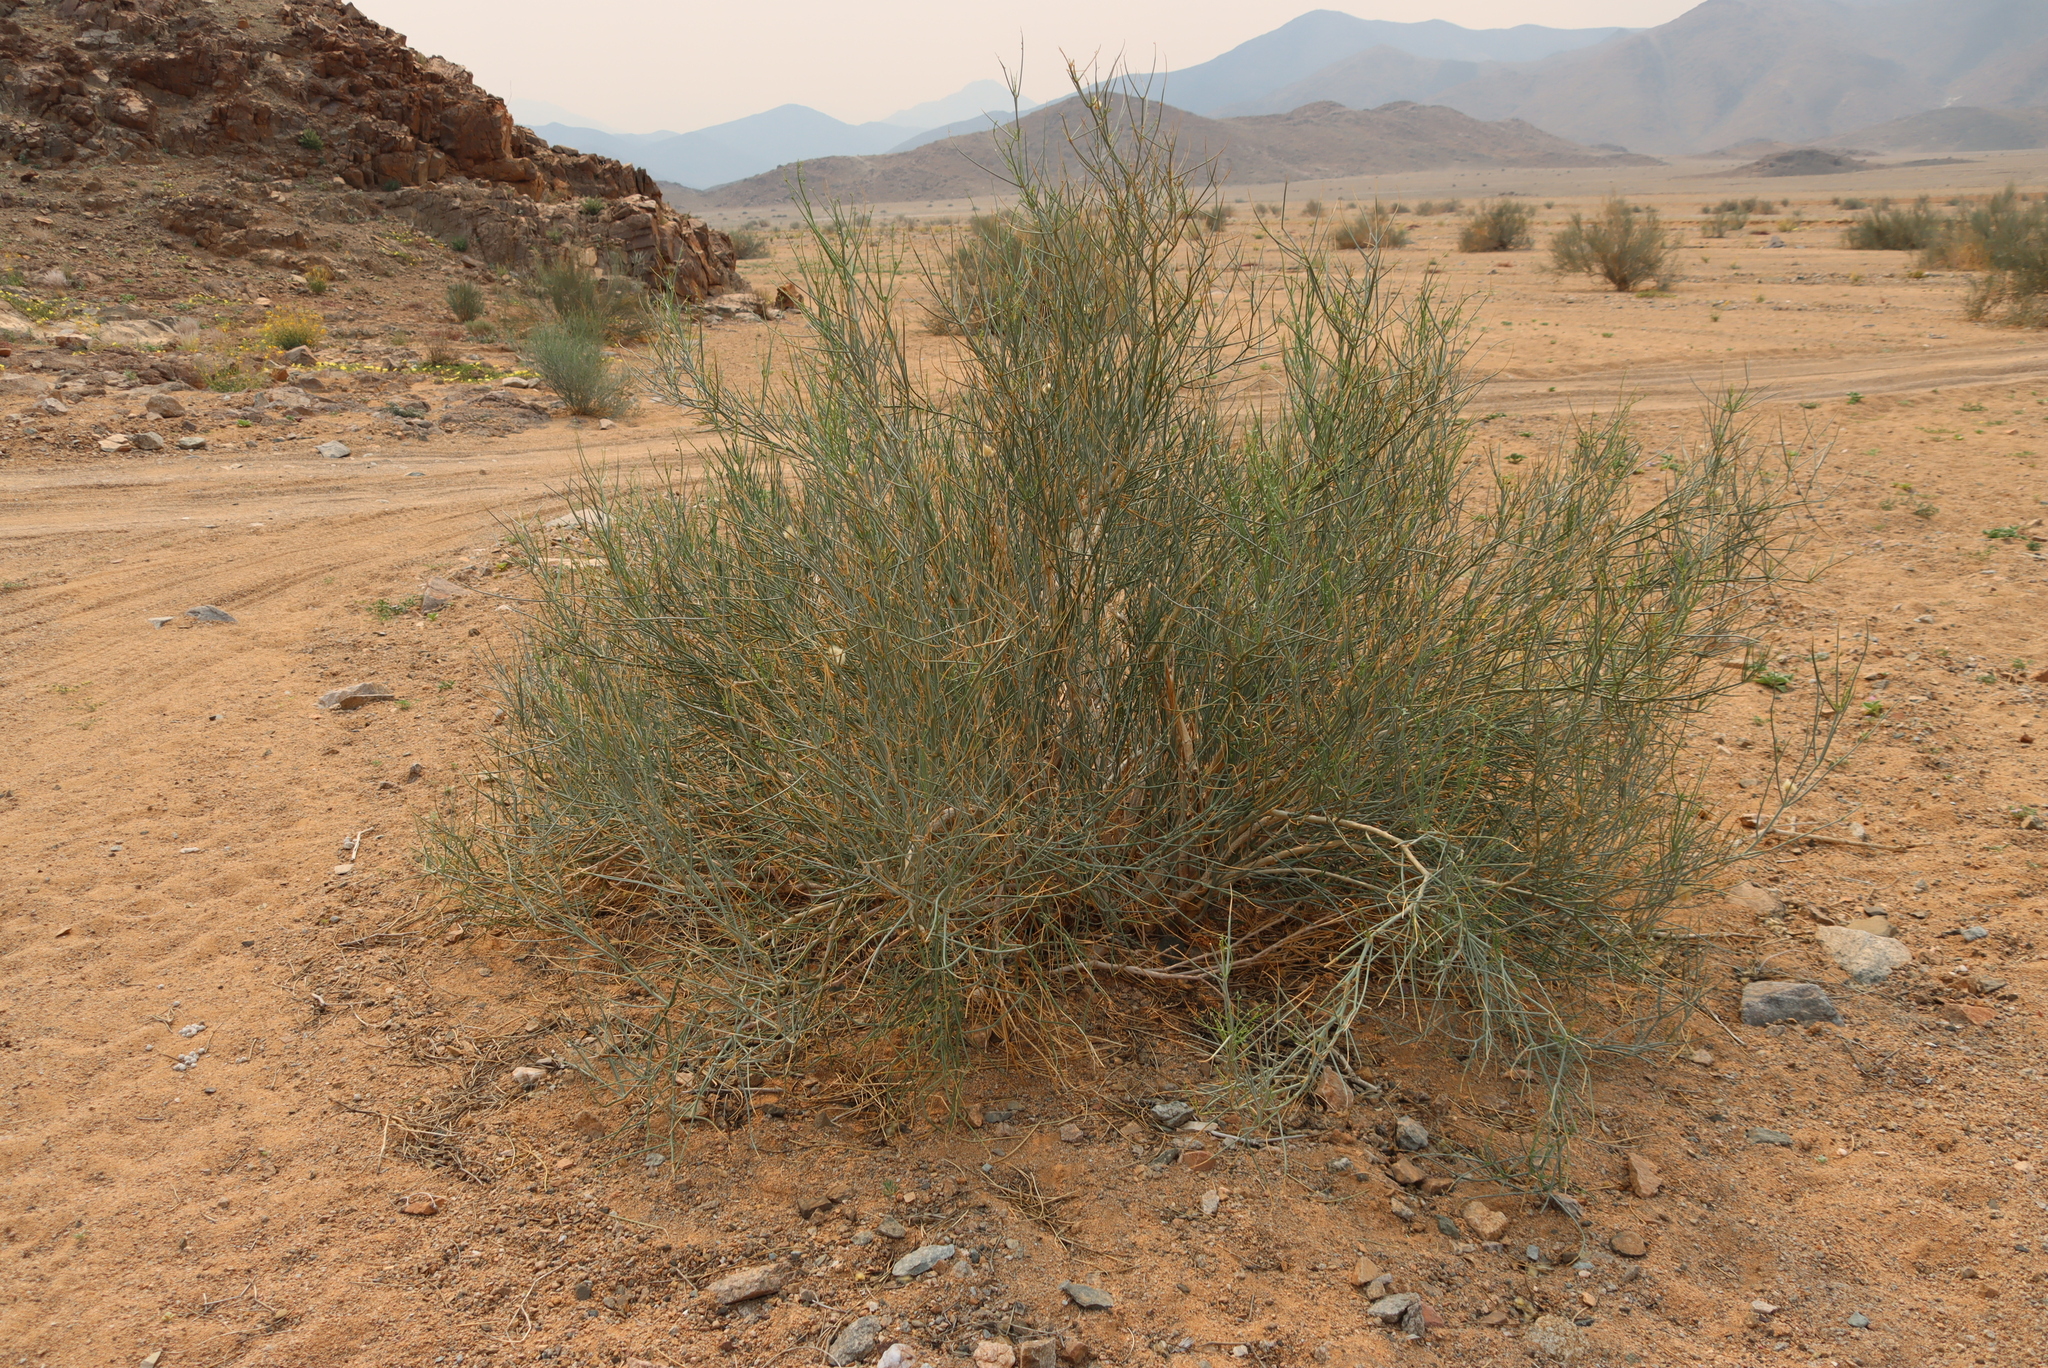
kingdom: Plantae
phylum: Tracheophyta
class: Magnoliopsida
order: Zygophyllales
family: Zygophyllaceae
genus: Sisyndite
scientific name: Sisyndite spartea
